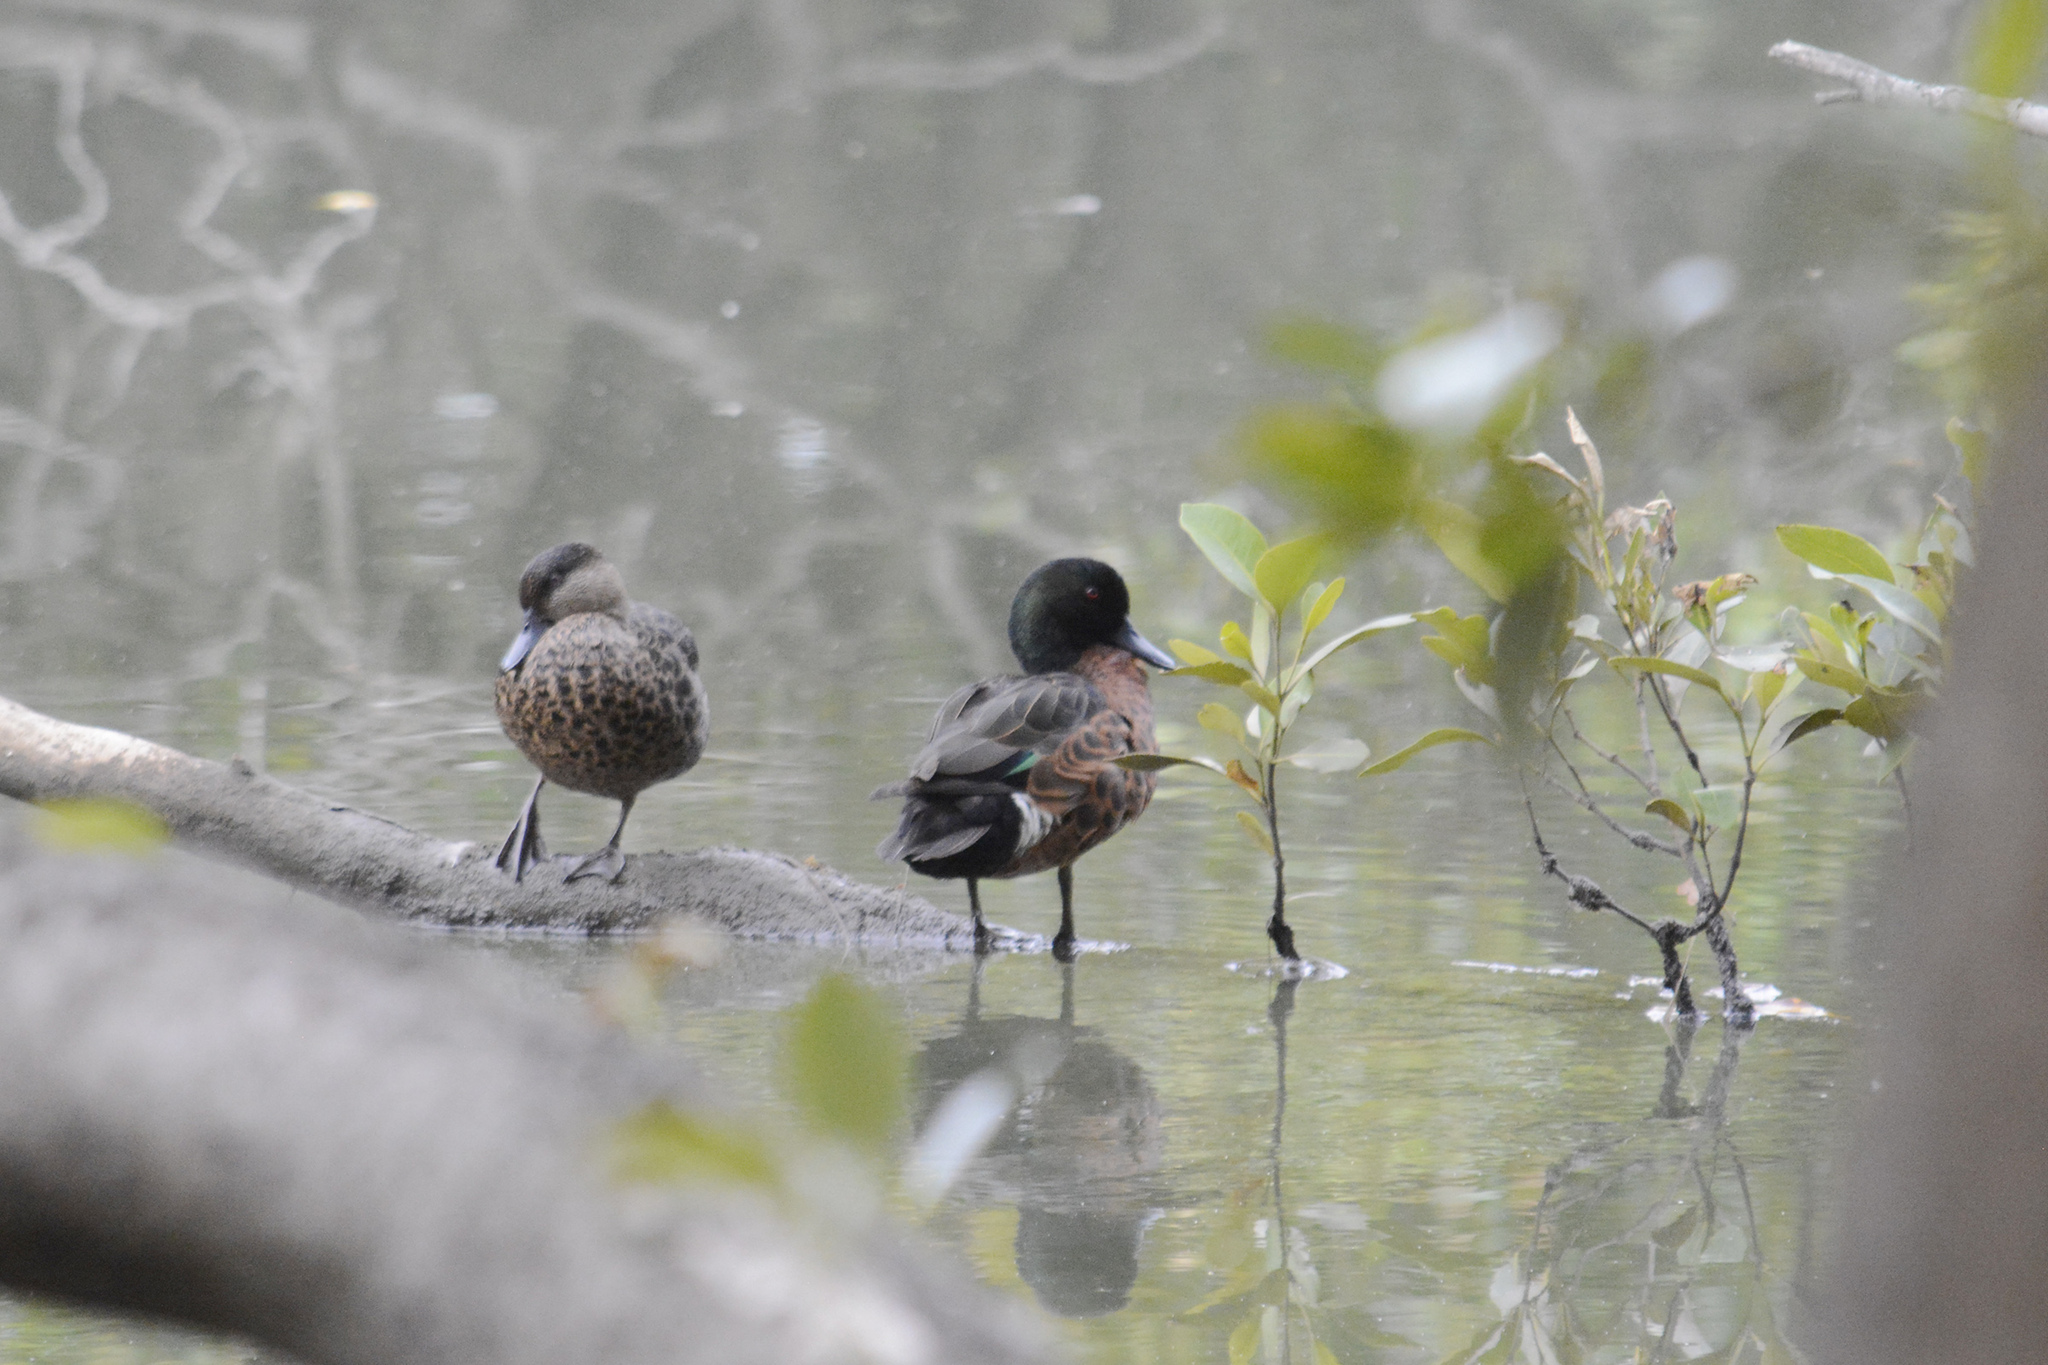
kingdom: Animalia
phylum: Chordata
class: Aves
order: Anseriformes
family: Anatidae
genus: Anas
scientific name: Anas castanea
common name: Chestnut teal
